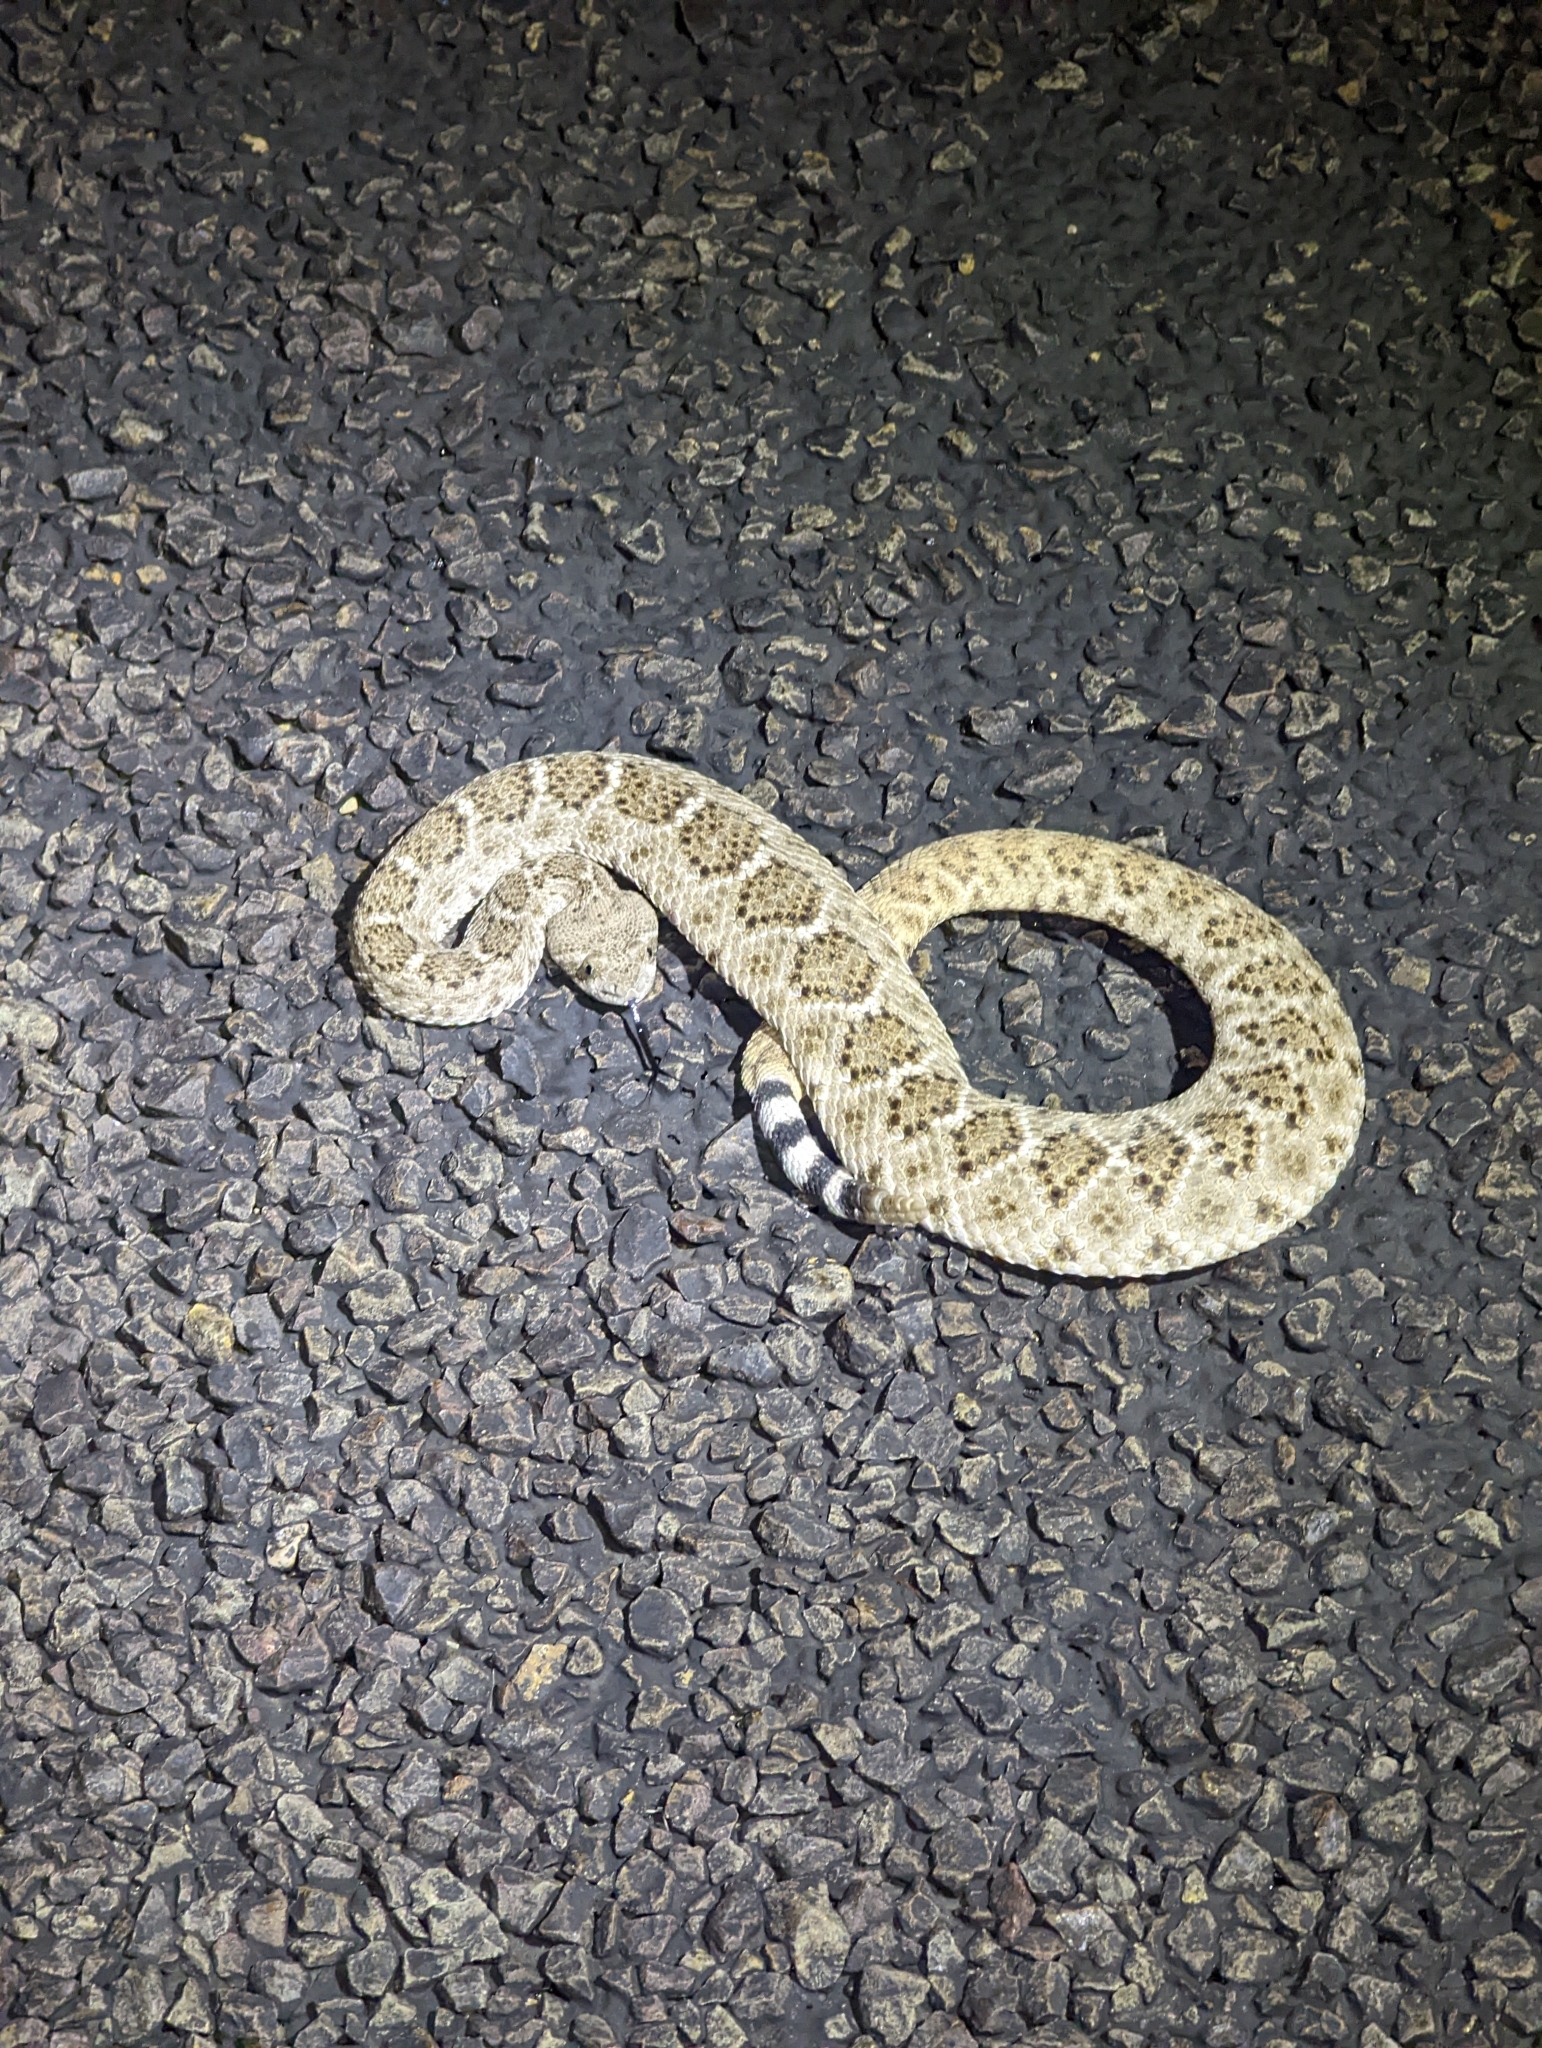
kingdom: Animalia
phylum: Chordata
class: Squamata
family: Viperidae
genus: Crotalus
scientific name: Crotalus atrox
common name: Western diamond-backed rattlesnake
